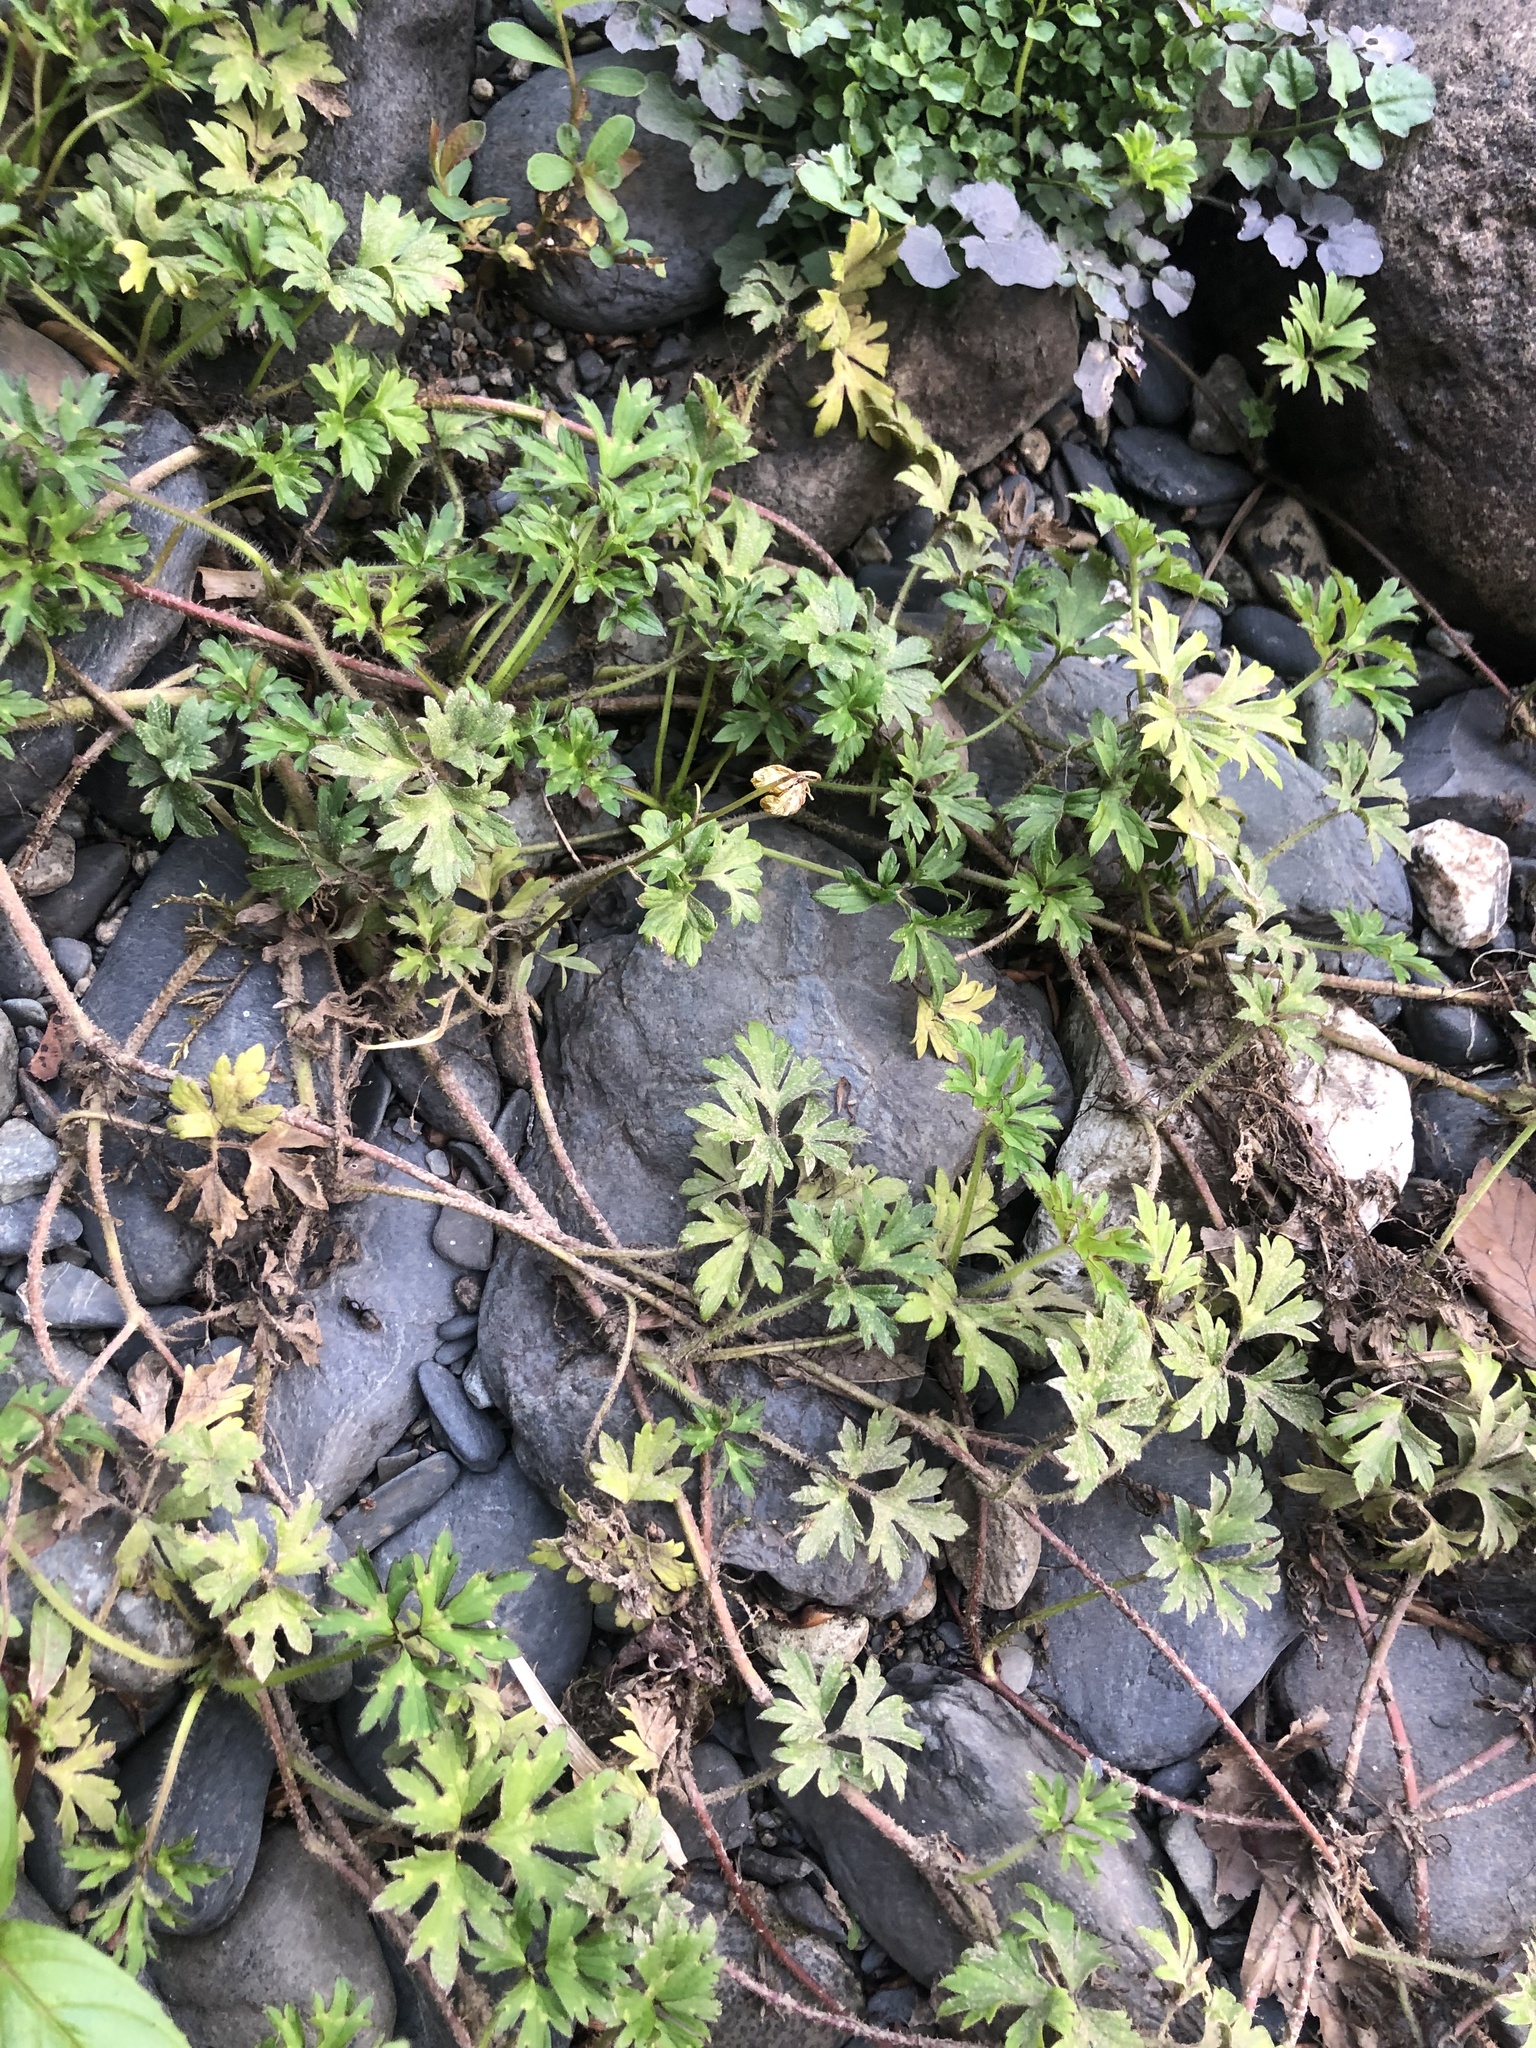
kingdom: Plantae
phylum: Tracheophyta
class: Magnoliopsida
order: Ranunculales
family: Ranunculaceae
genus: Ranunculus
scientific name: Ranunculus repens
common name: Creeping buttercup
